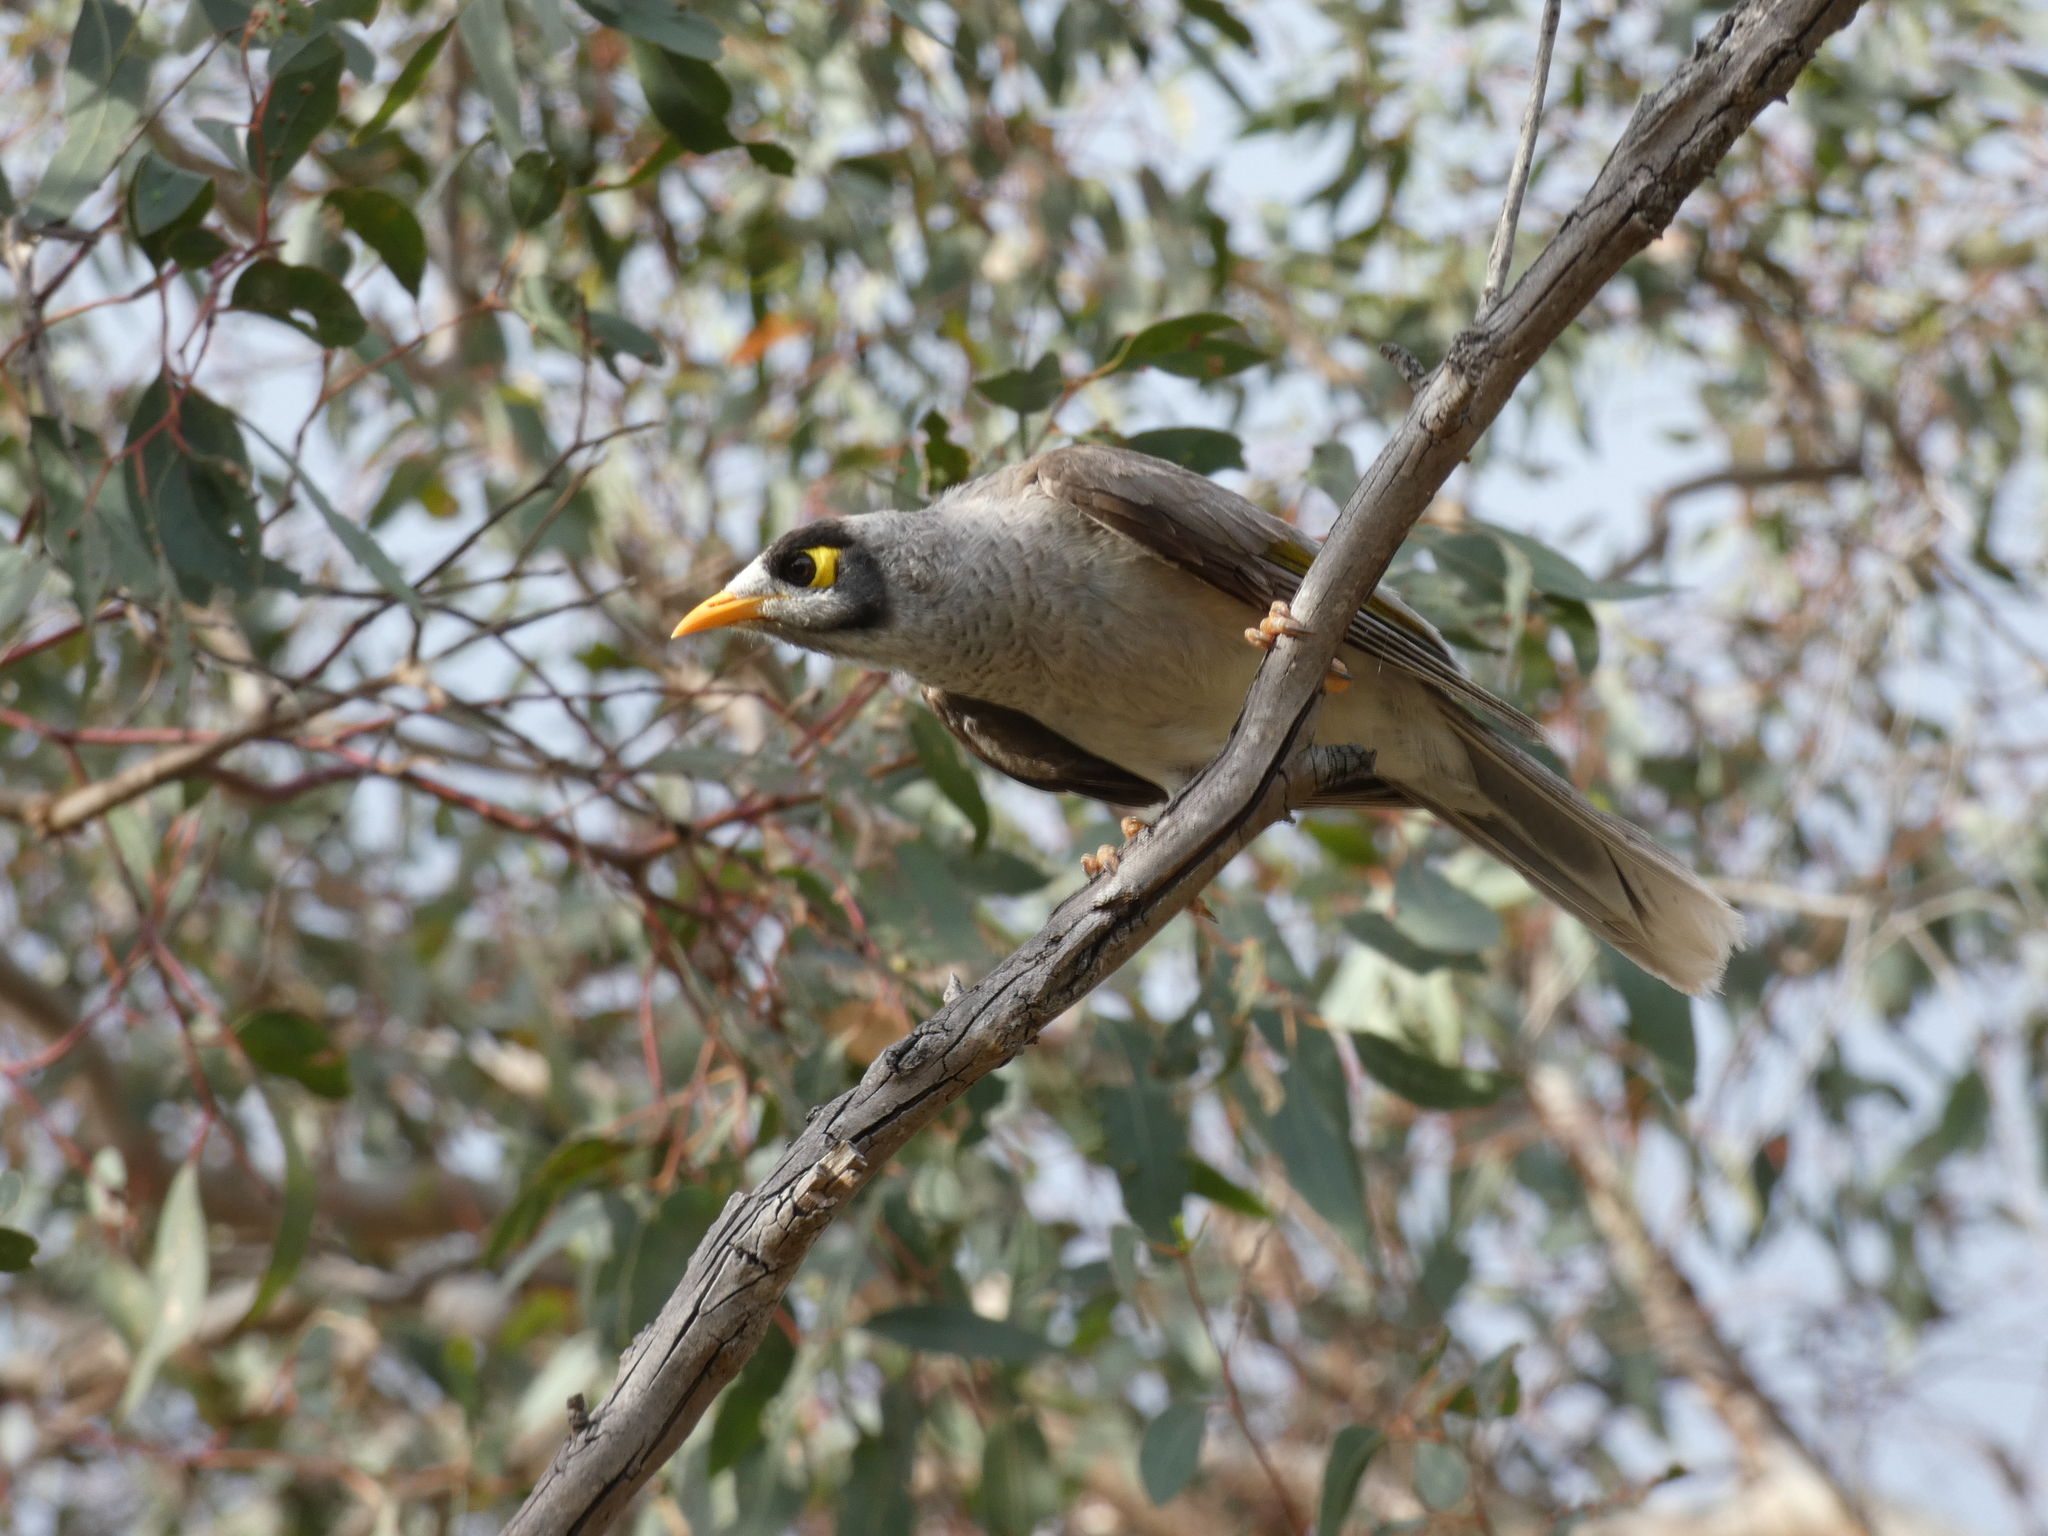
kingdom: Animalia
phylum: Chordata
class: Aves
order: Passeriformes
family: Meliphagidae
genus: Manorina
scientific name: Manorina melanocephala
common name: Noisy miner
